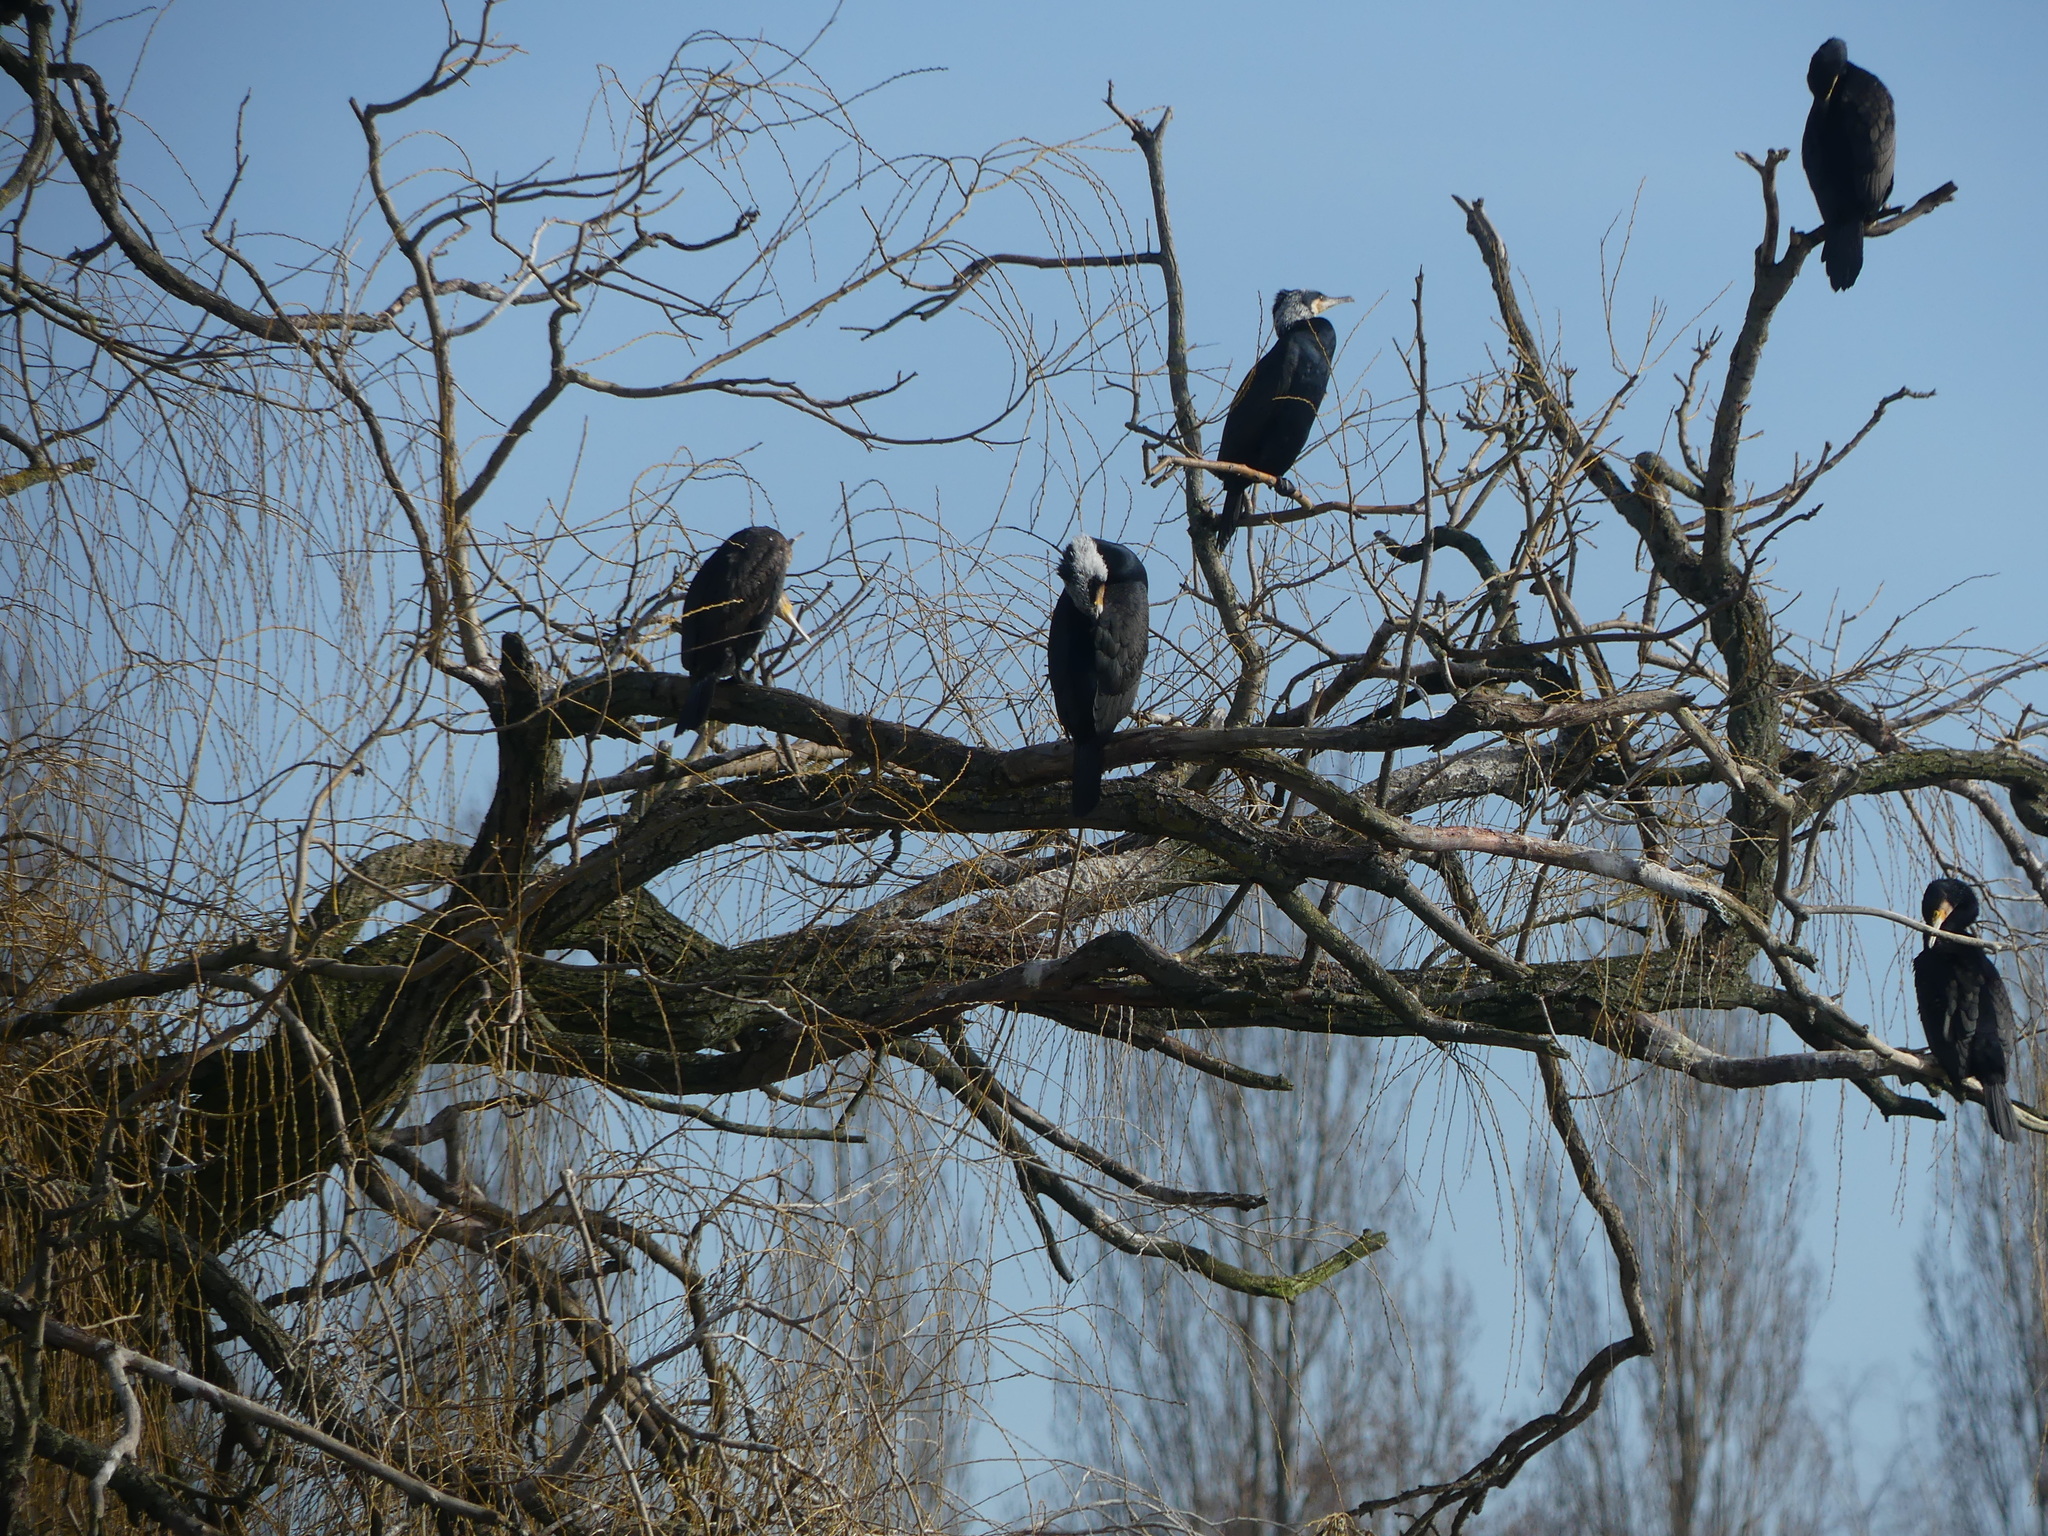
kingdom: Animalia
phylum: Chordata
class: Aves
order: Suliformes
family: Phalacrocoracidae
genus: Phalacrocorax
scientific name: Phalacrocorax carbo
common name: Great cormorant
